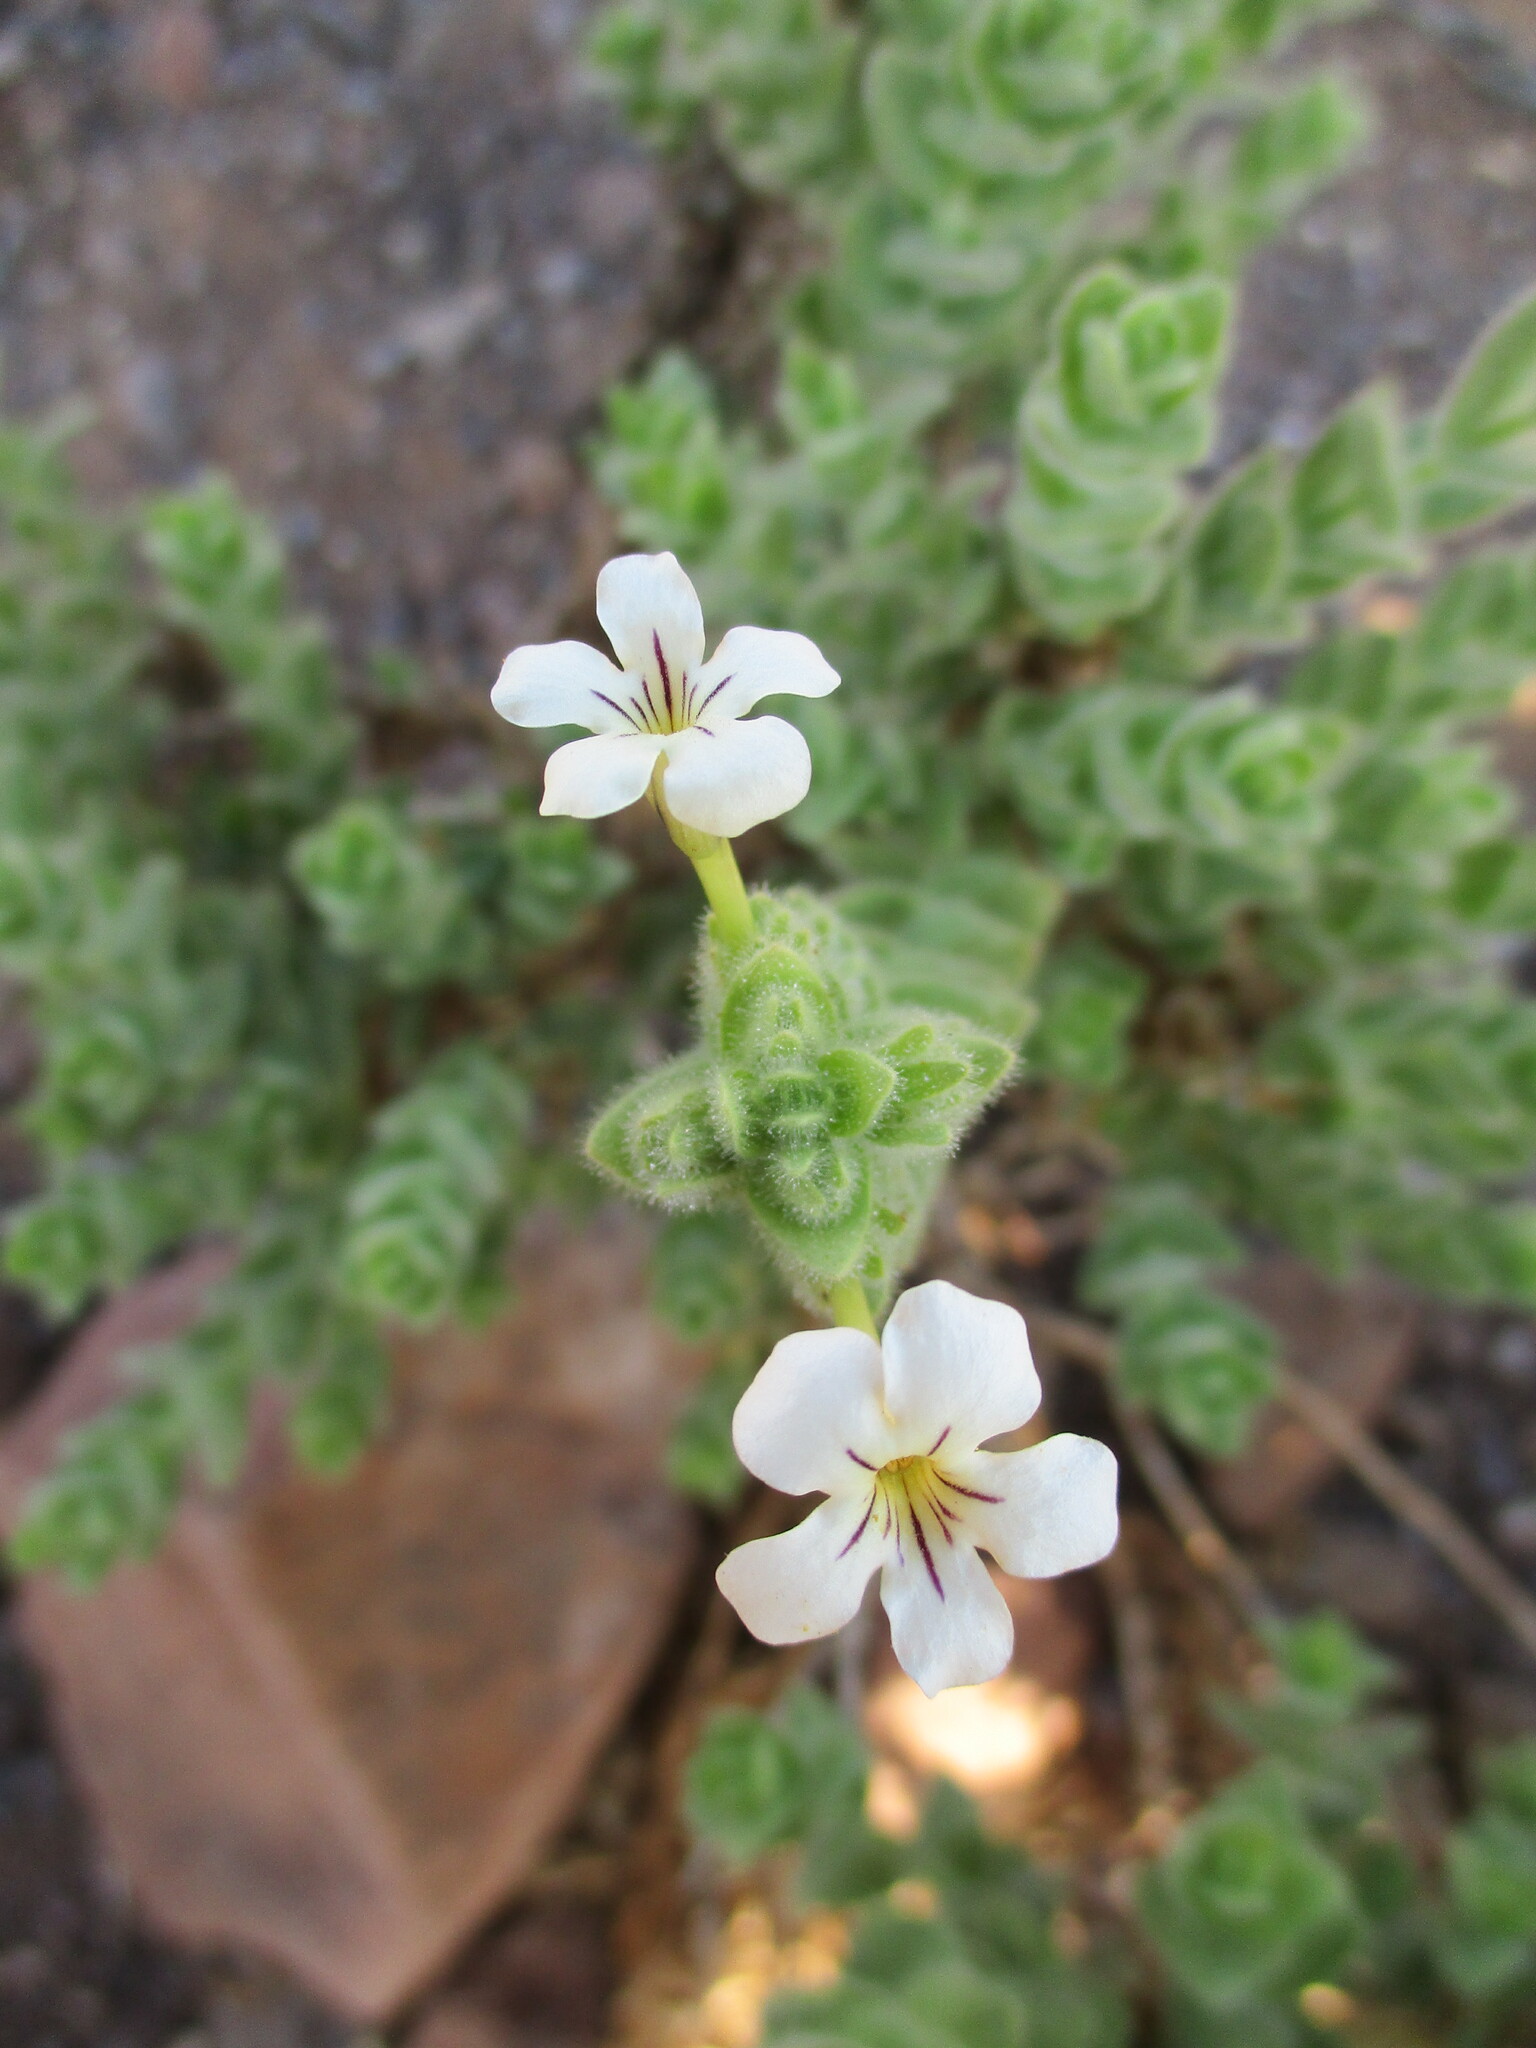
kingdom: Plantae
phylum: Tracheophyta
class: Magnoliopsida
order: Lamiales
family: Scrophulariaceae
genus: Jamesbrittenia
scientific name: Jamesbrittenia maxii
